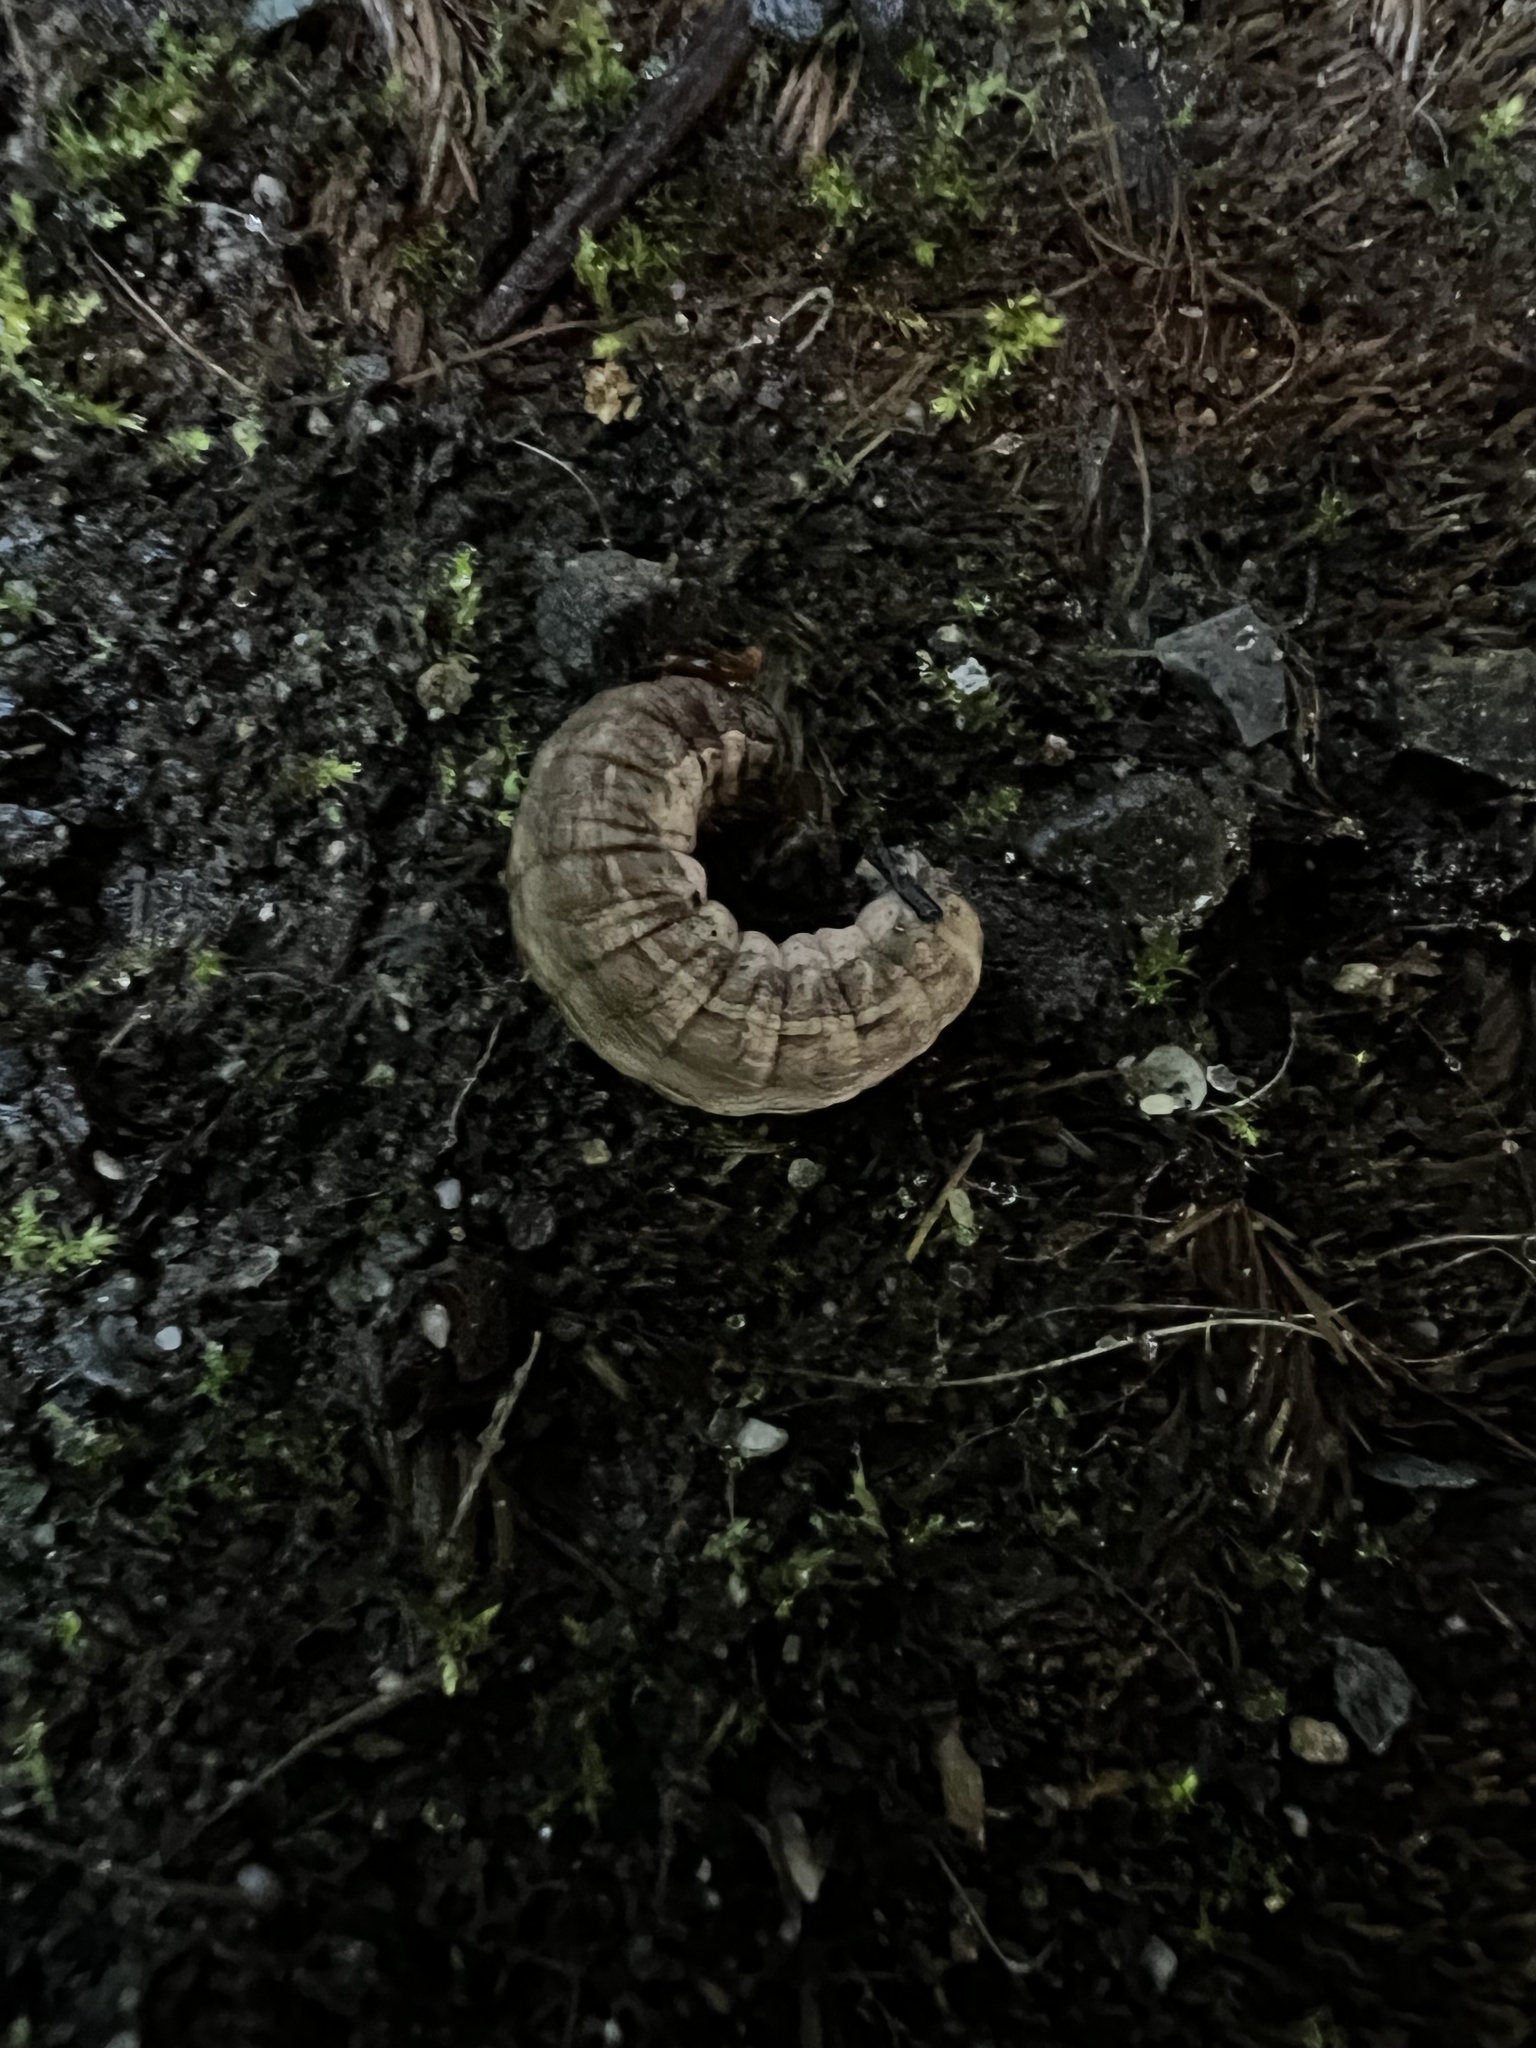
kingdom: Animalia
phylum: Arthropoda
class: Insecta
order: Lepidoptera
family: Noctuidae
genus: Noctua
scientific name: Noctua pronuba
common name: Large yellow underwing
